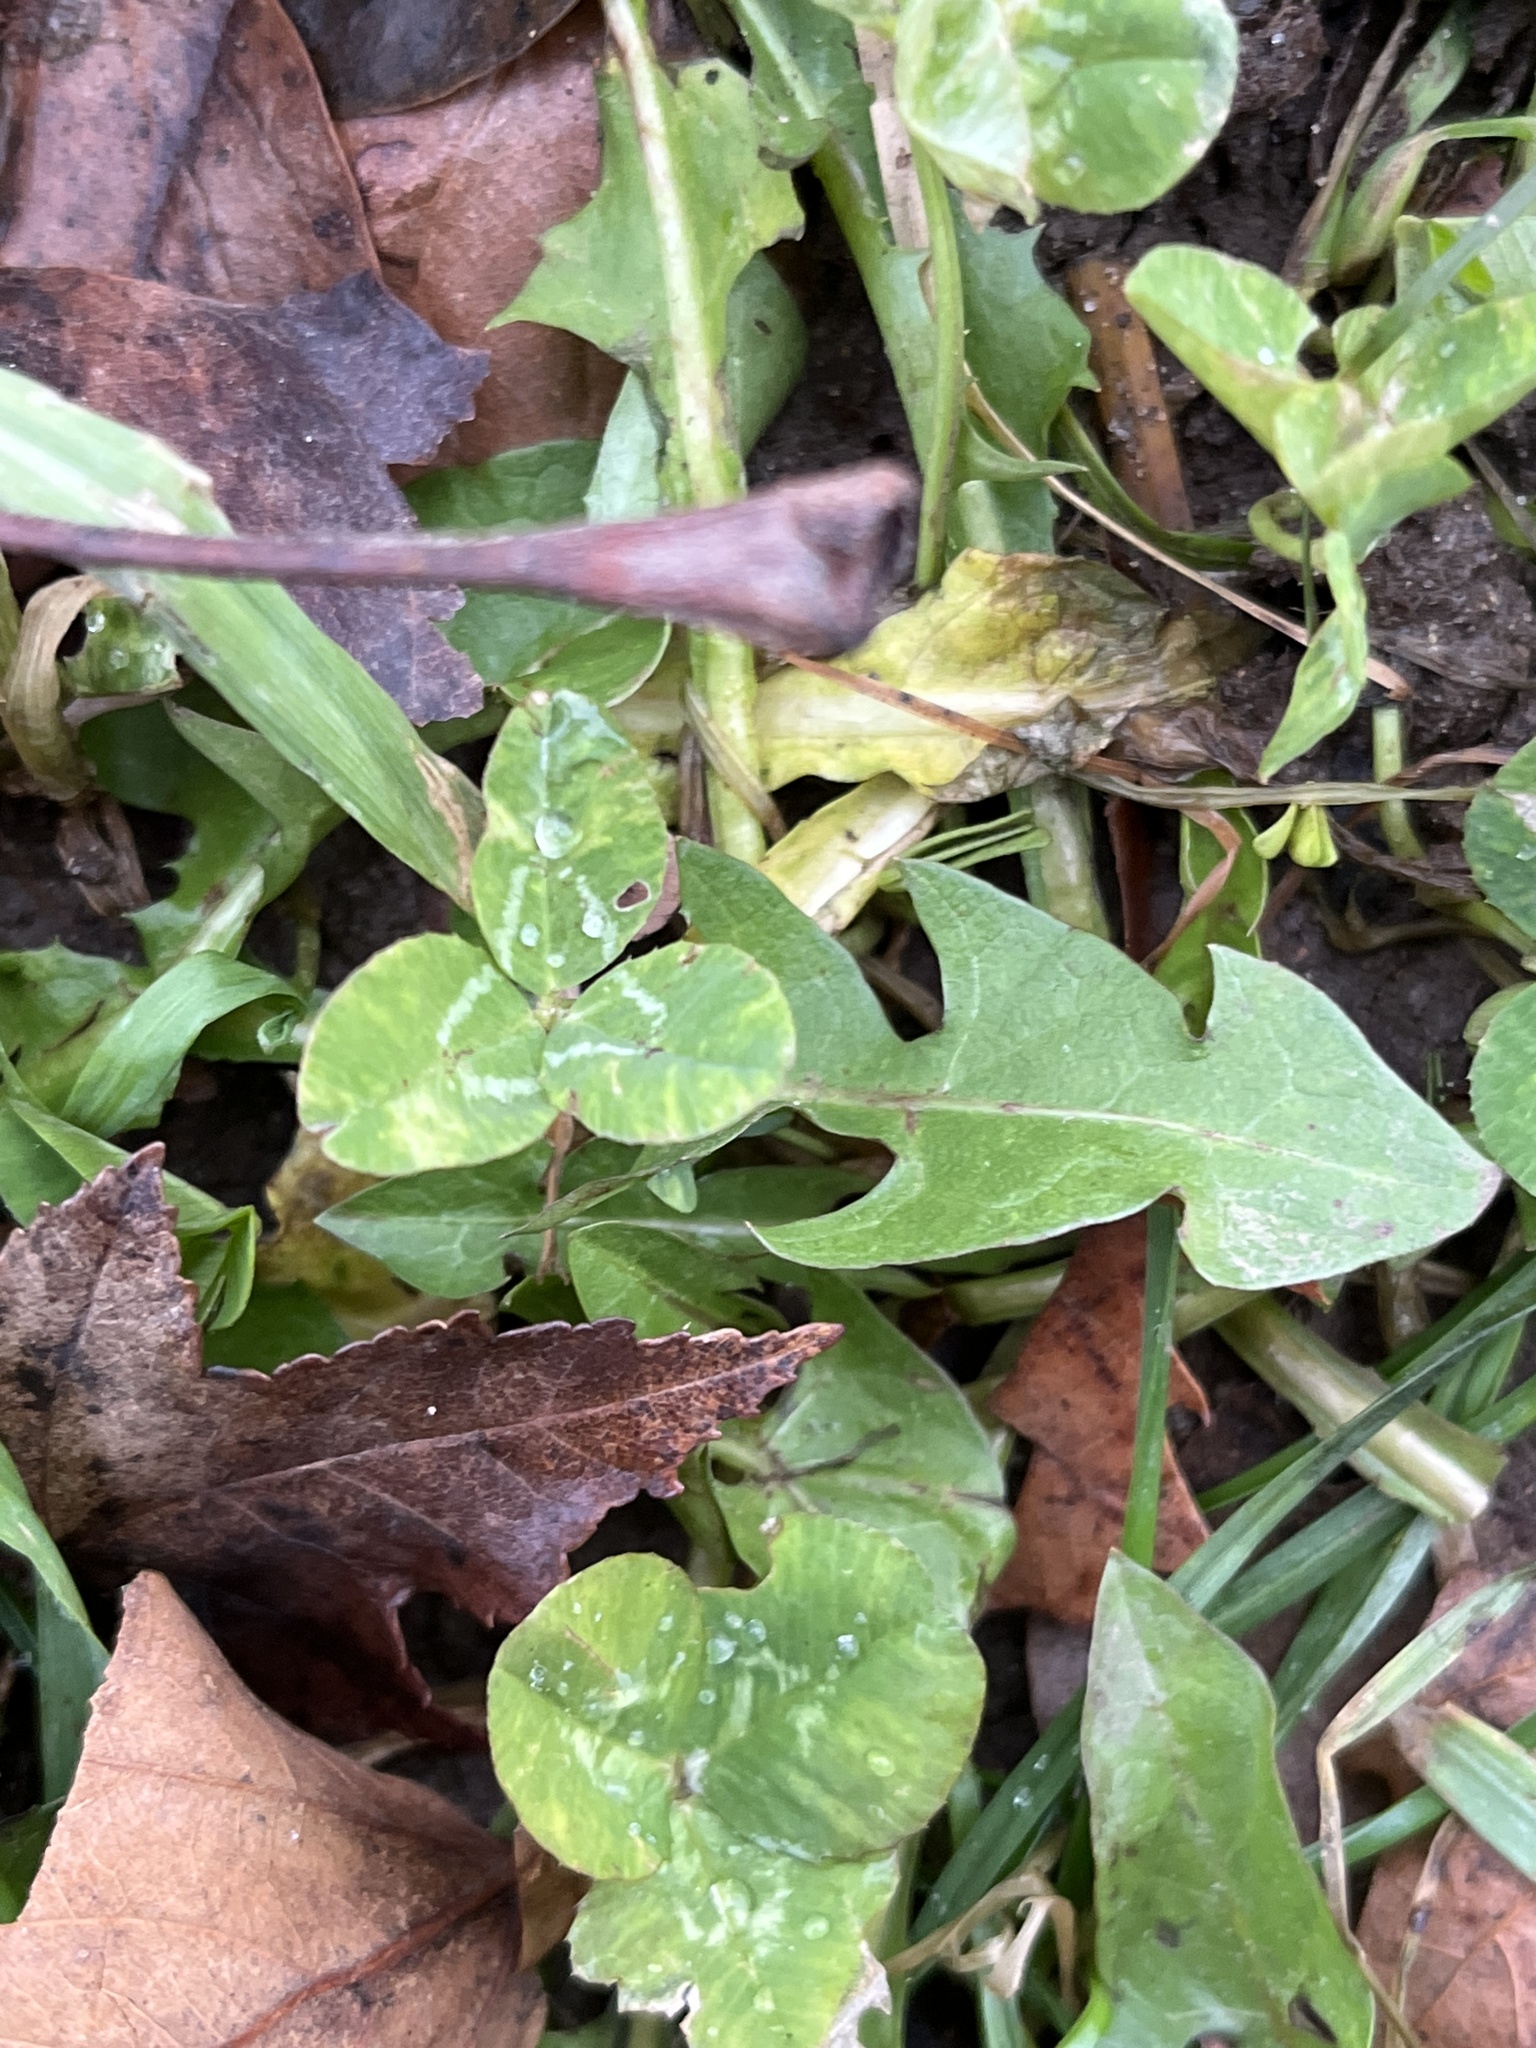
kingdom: Plantae
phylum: Tracheophyta
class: Magnoliopsida
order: Fabales
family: Fabaceae
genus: Trifolium
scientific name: Trifolium repens
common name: White clover
